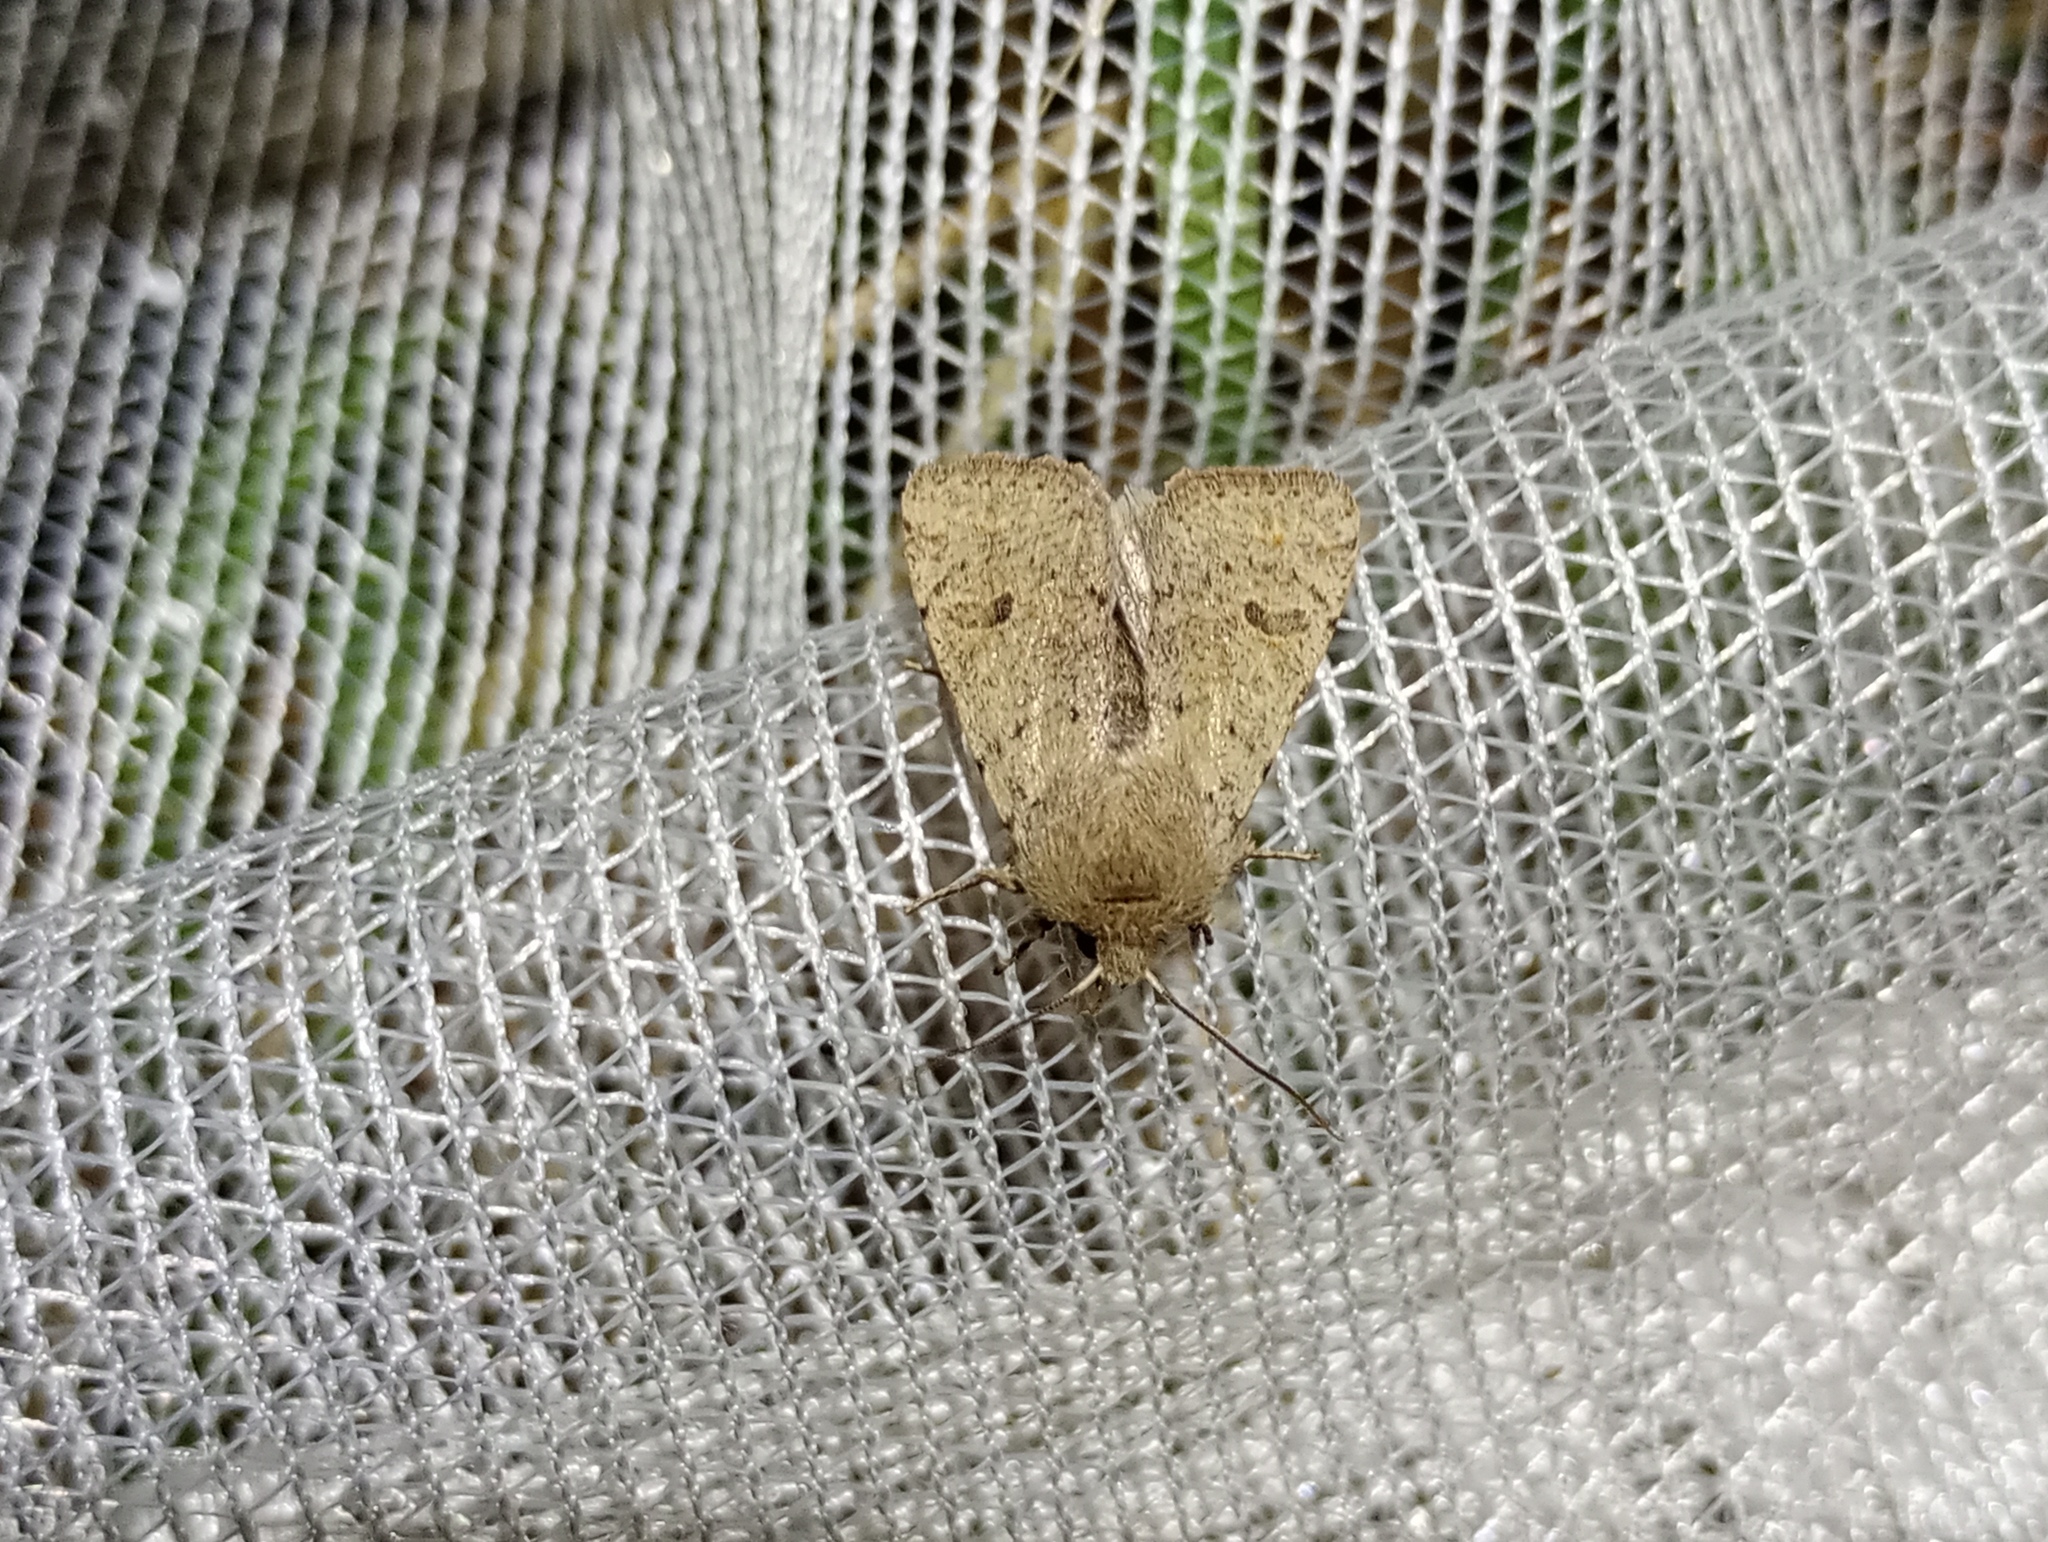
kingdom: Animalia
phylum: Arthropoda
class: Insecta
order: Lepidoptera
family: Noctuidae
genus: Orthosia
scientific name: Orthosia cruda
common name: Small quaker
